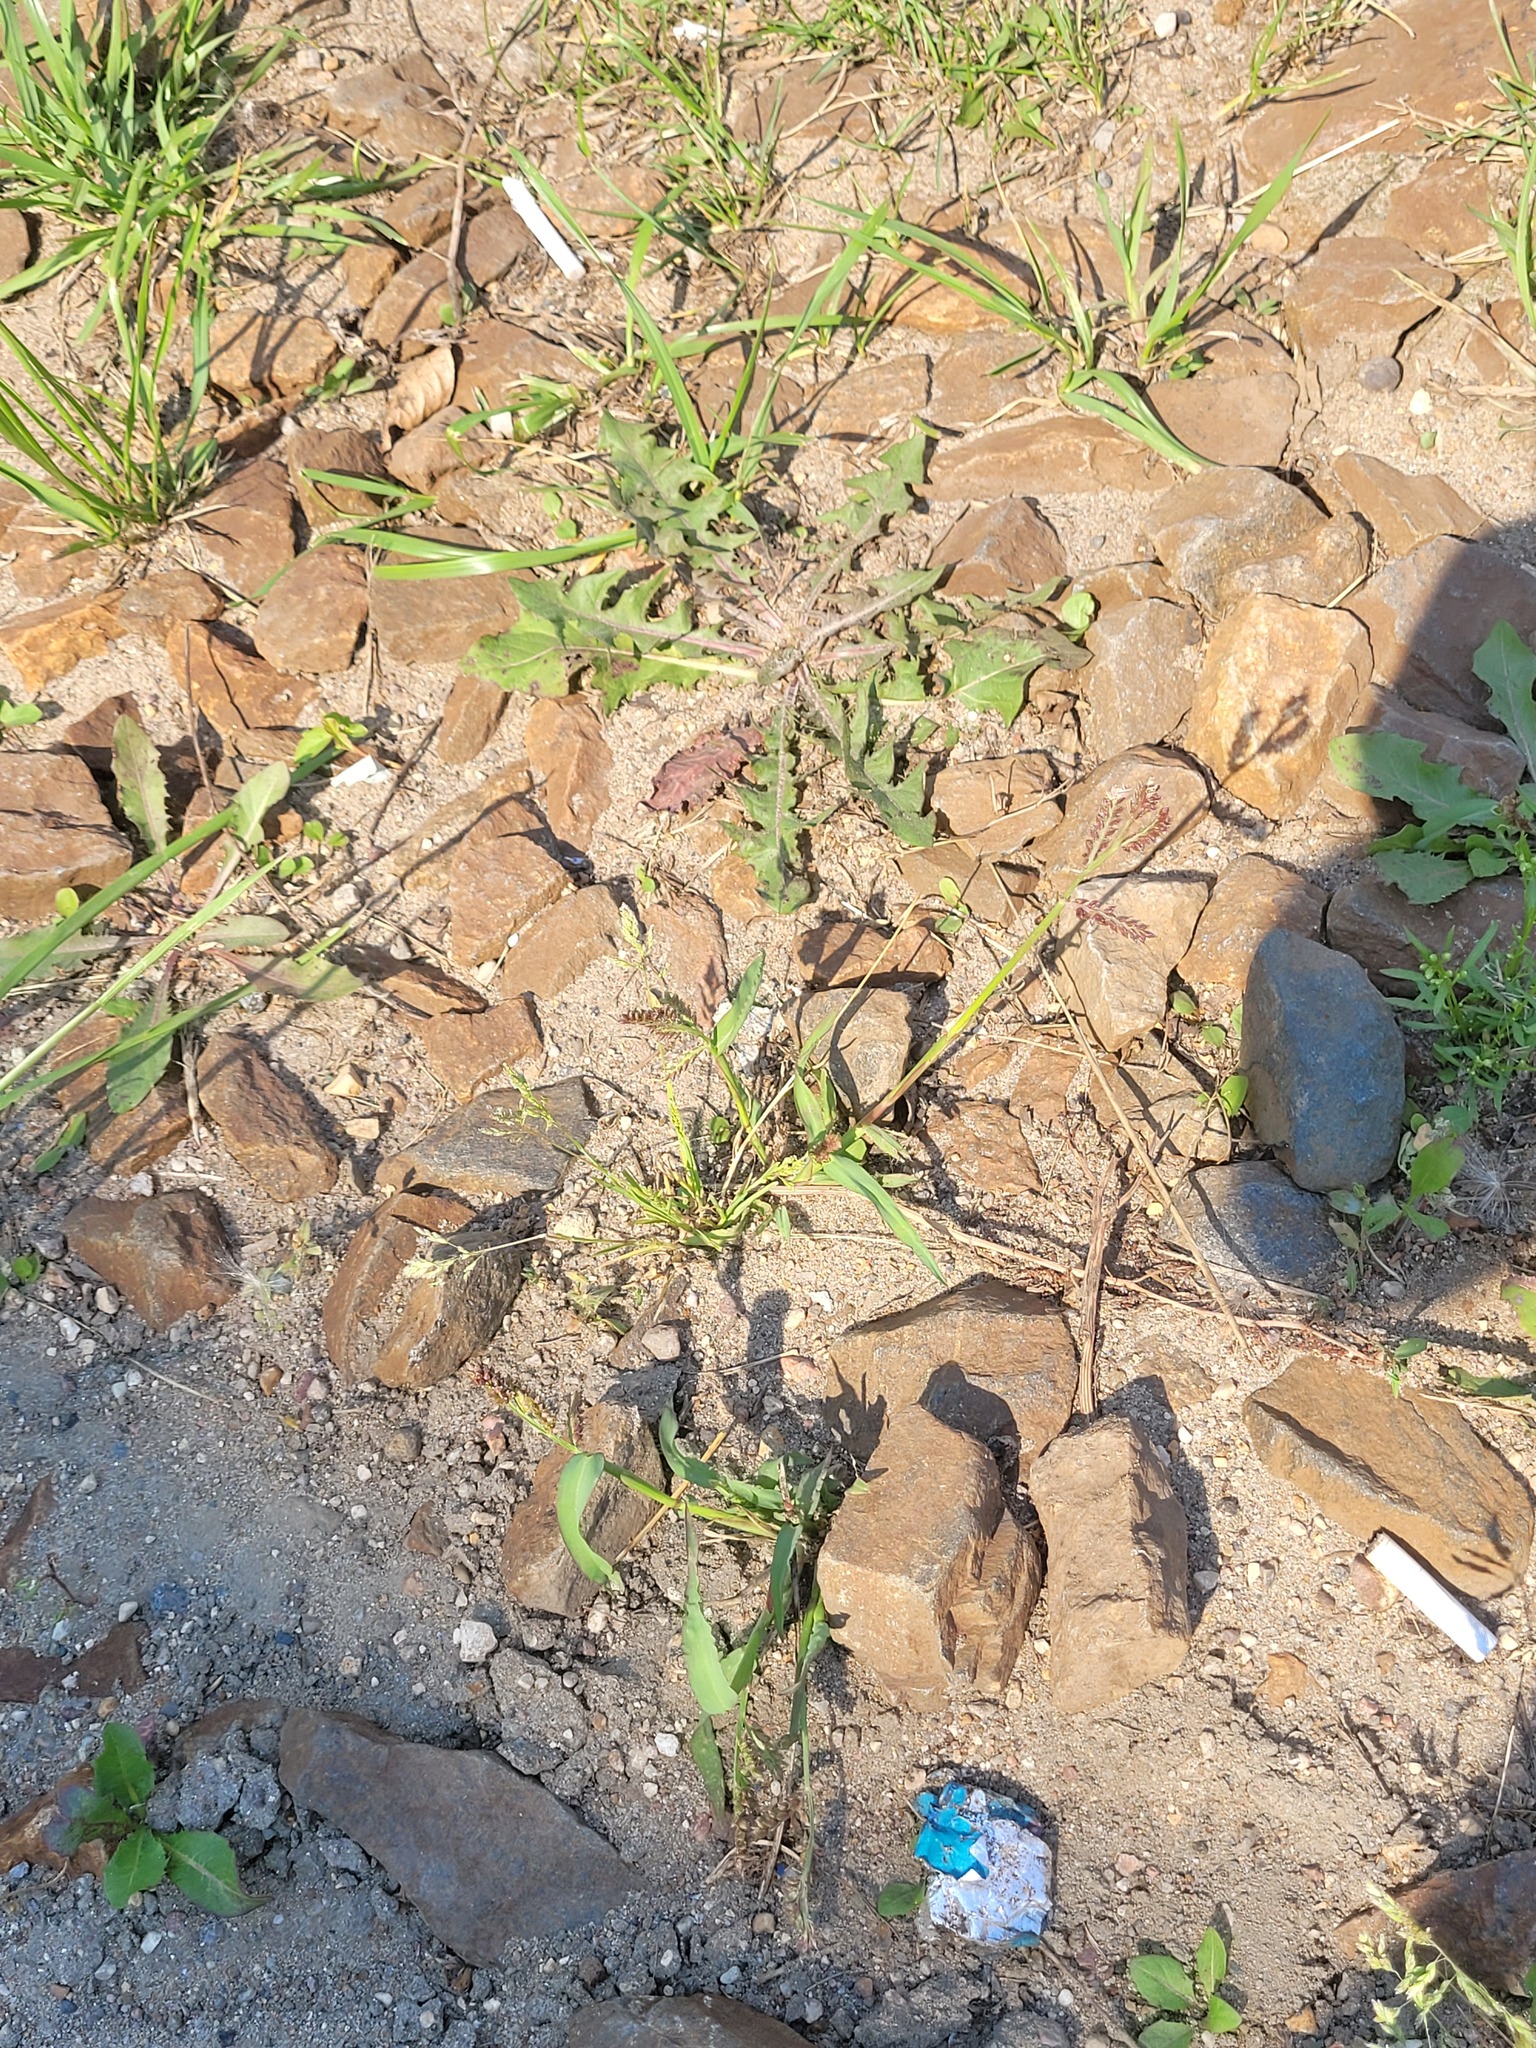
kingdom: Plantae
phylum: Tracheophyta
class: Liliopsida
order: Poales
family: Poaceae
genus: Echinochloa
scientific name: Echinochloa crus-galli
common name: Cockspur
